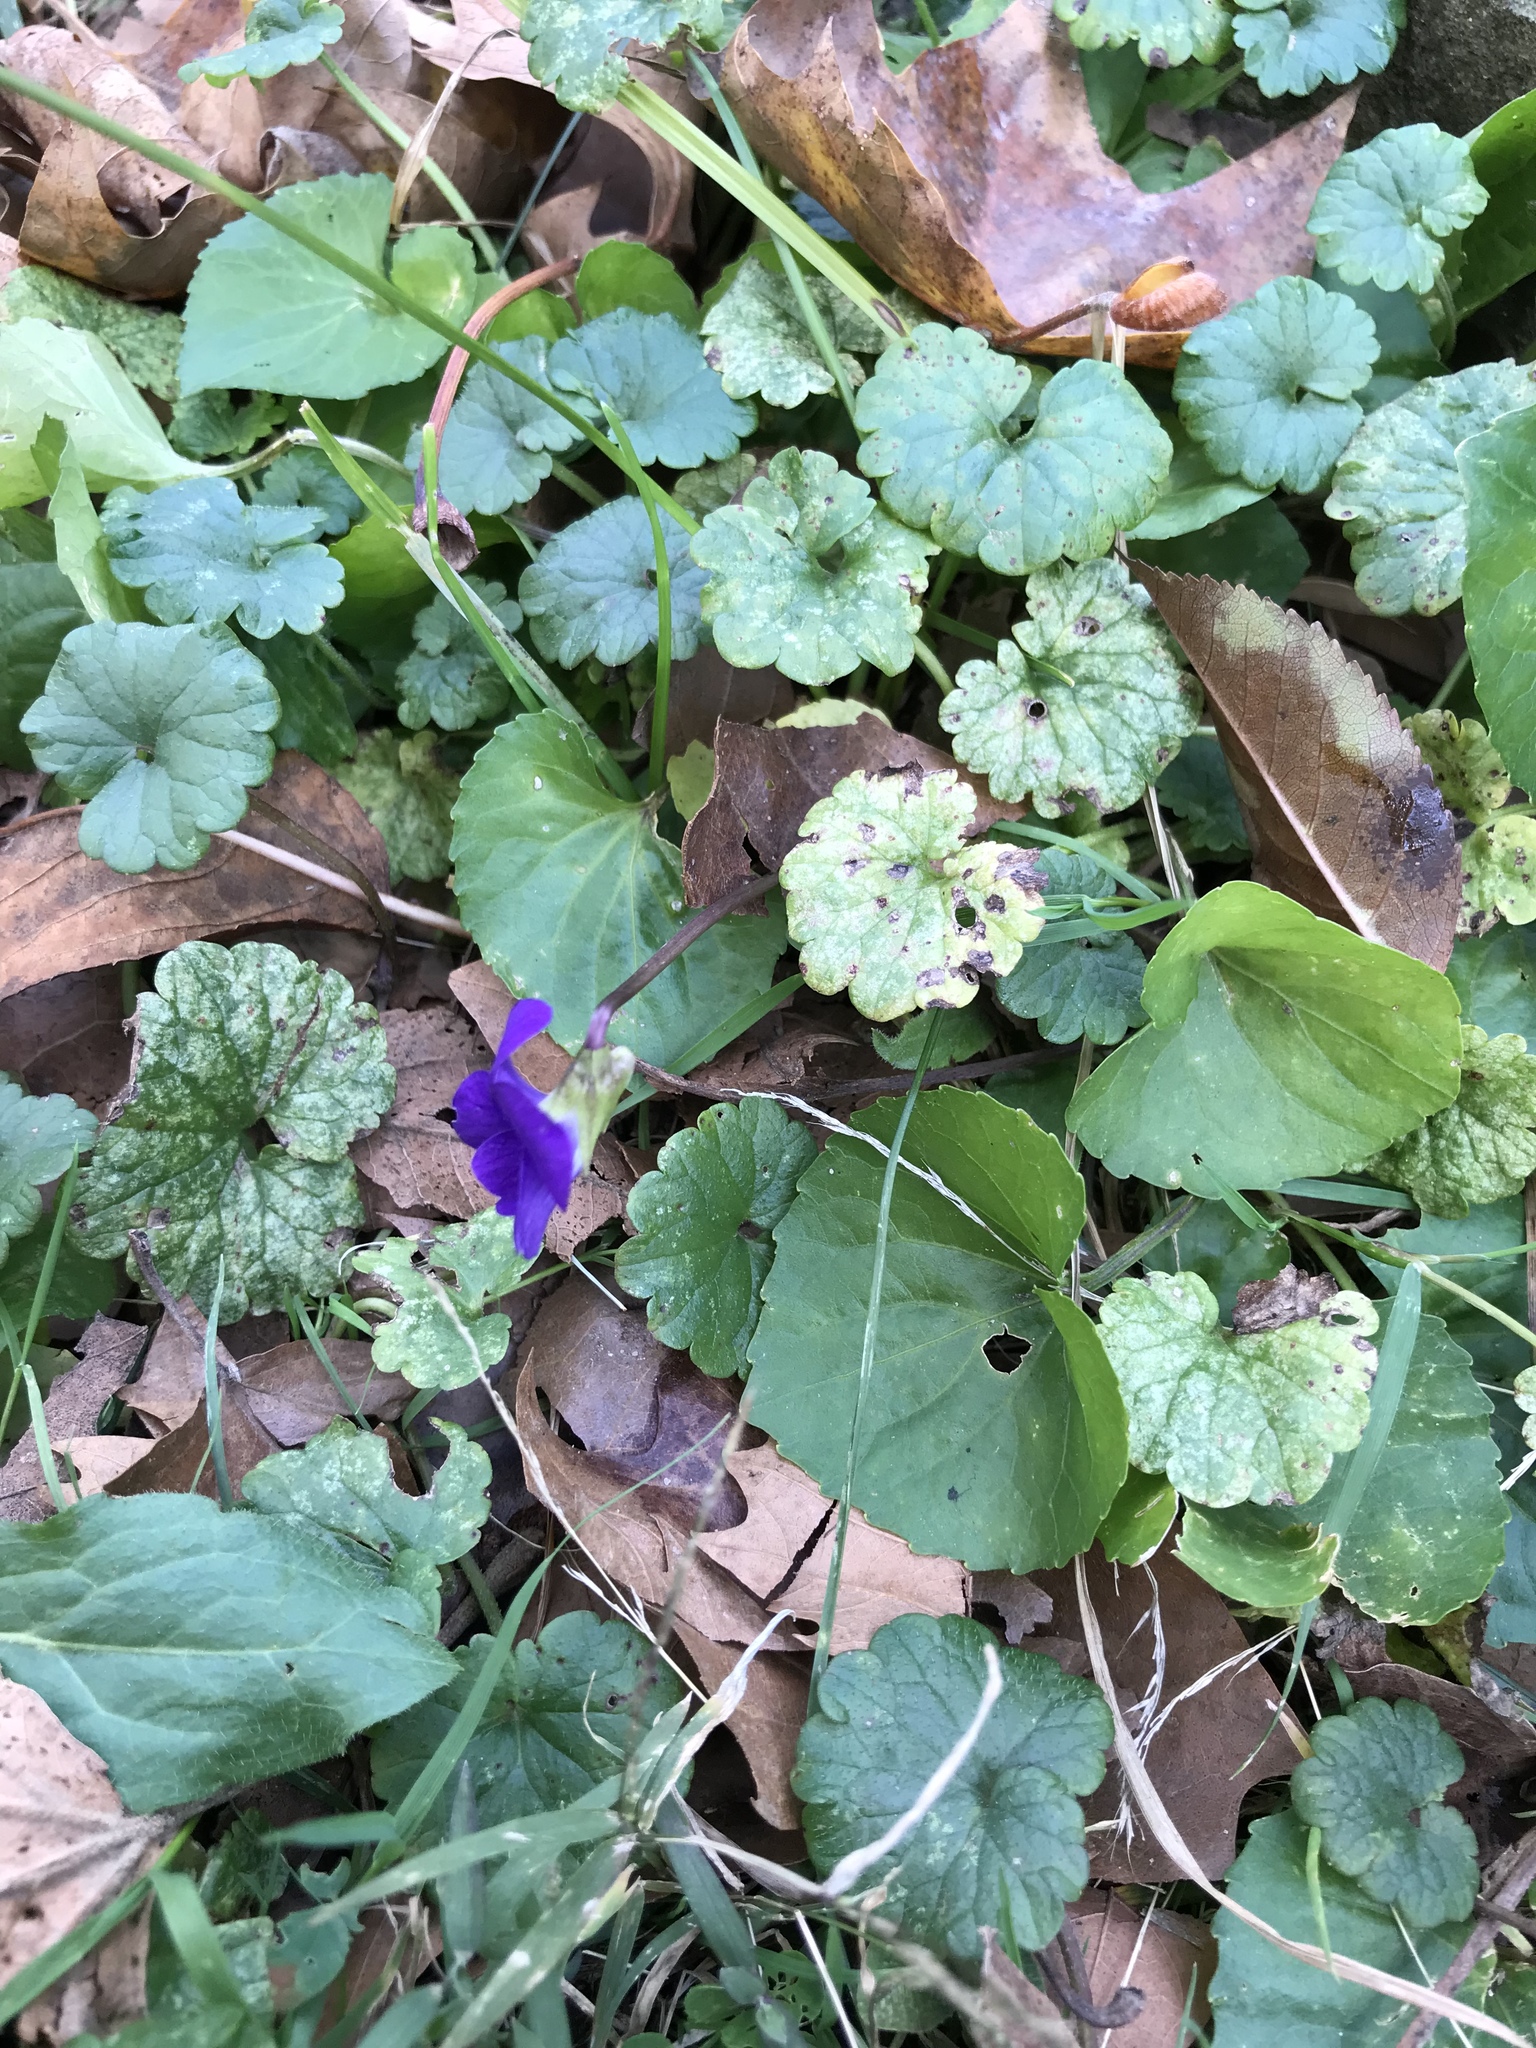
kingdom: Plantae
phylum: Tracheophyta
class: Magnoliopsida
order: Malpighiales
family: Violaceae
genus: Viola
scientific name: Viola sororia
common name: Dooryard violet
